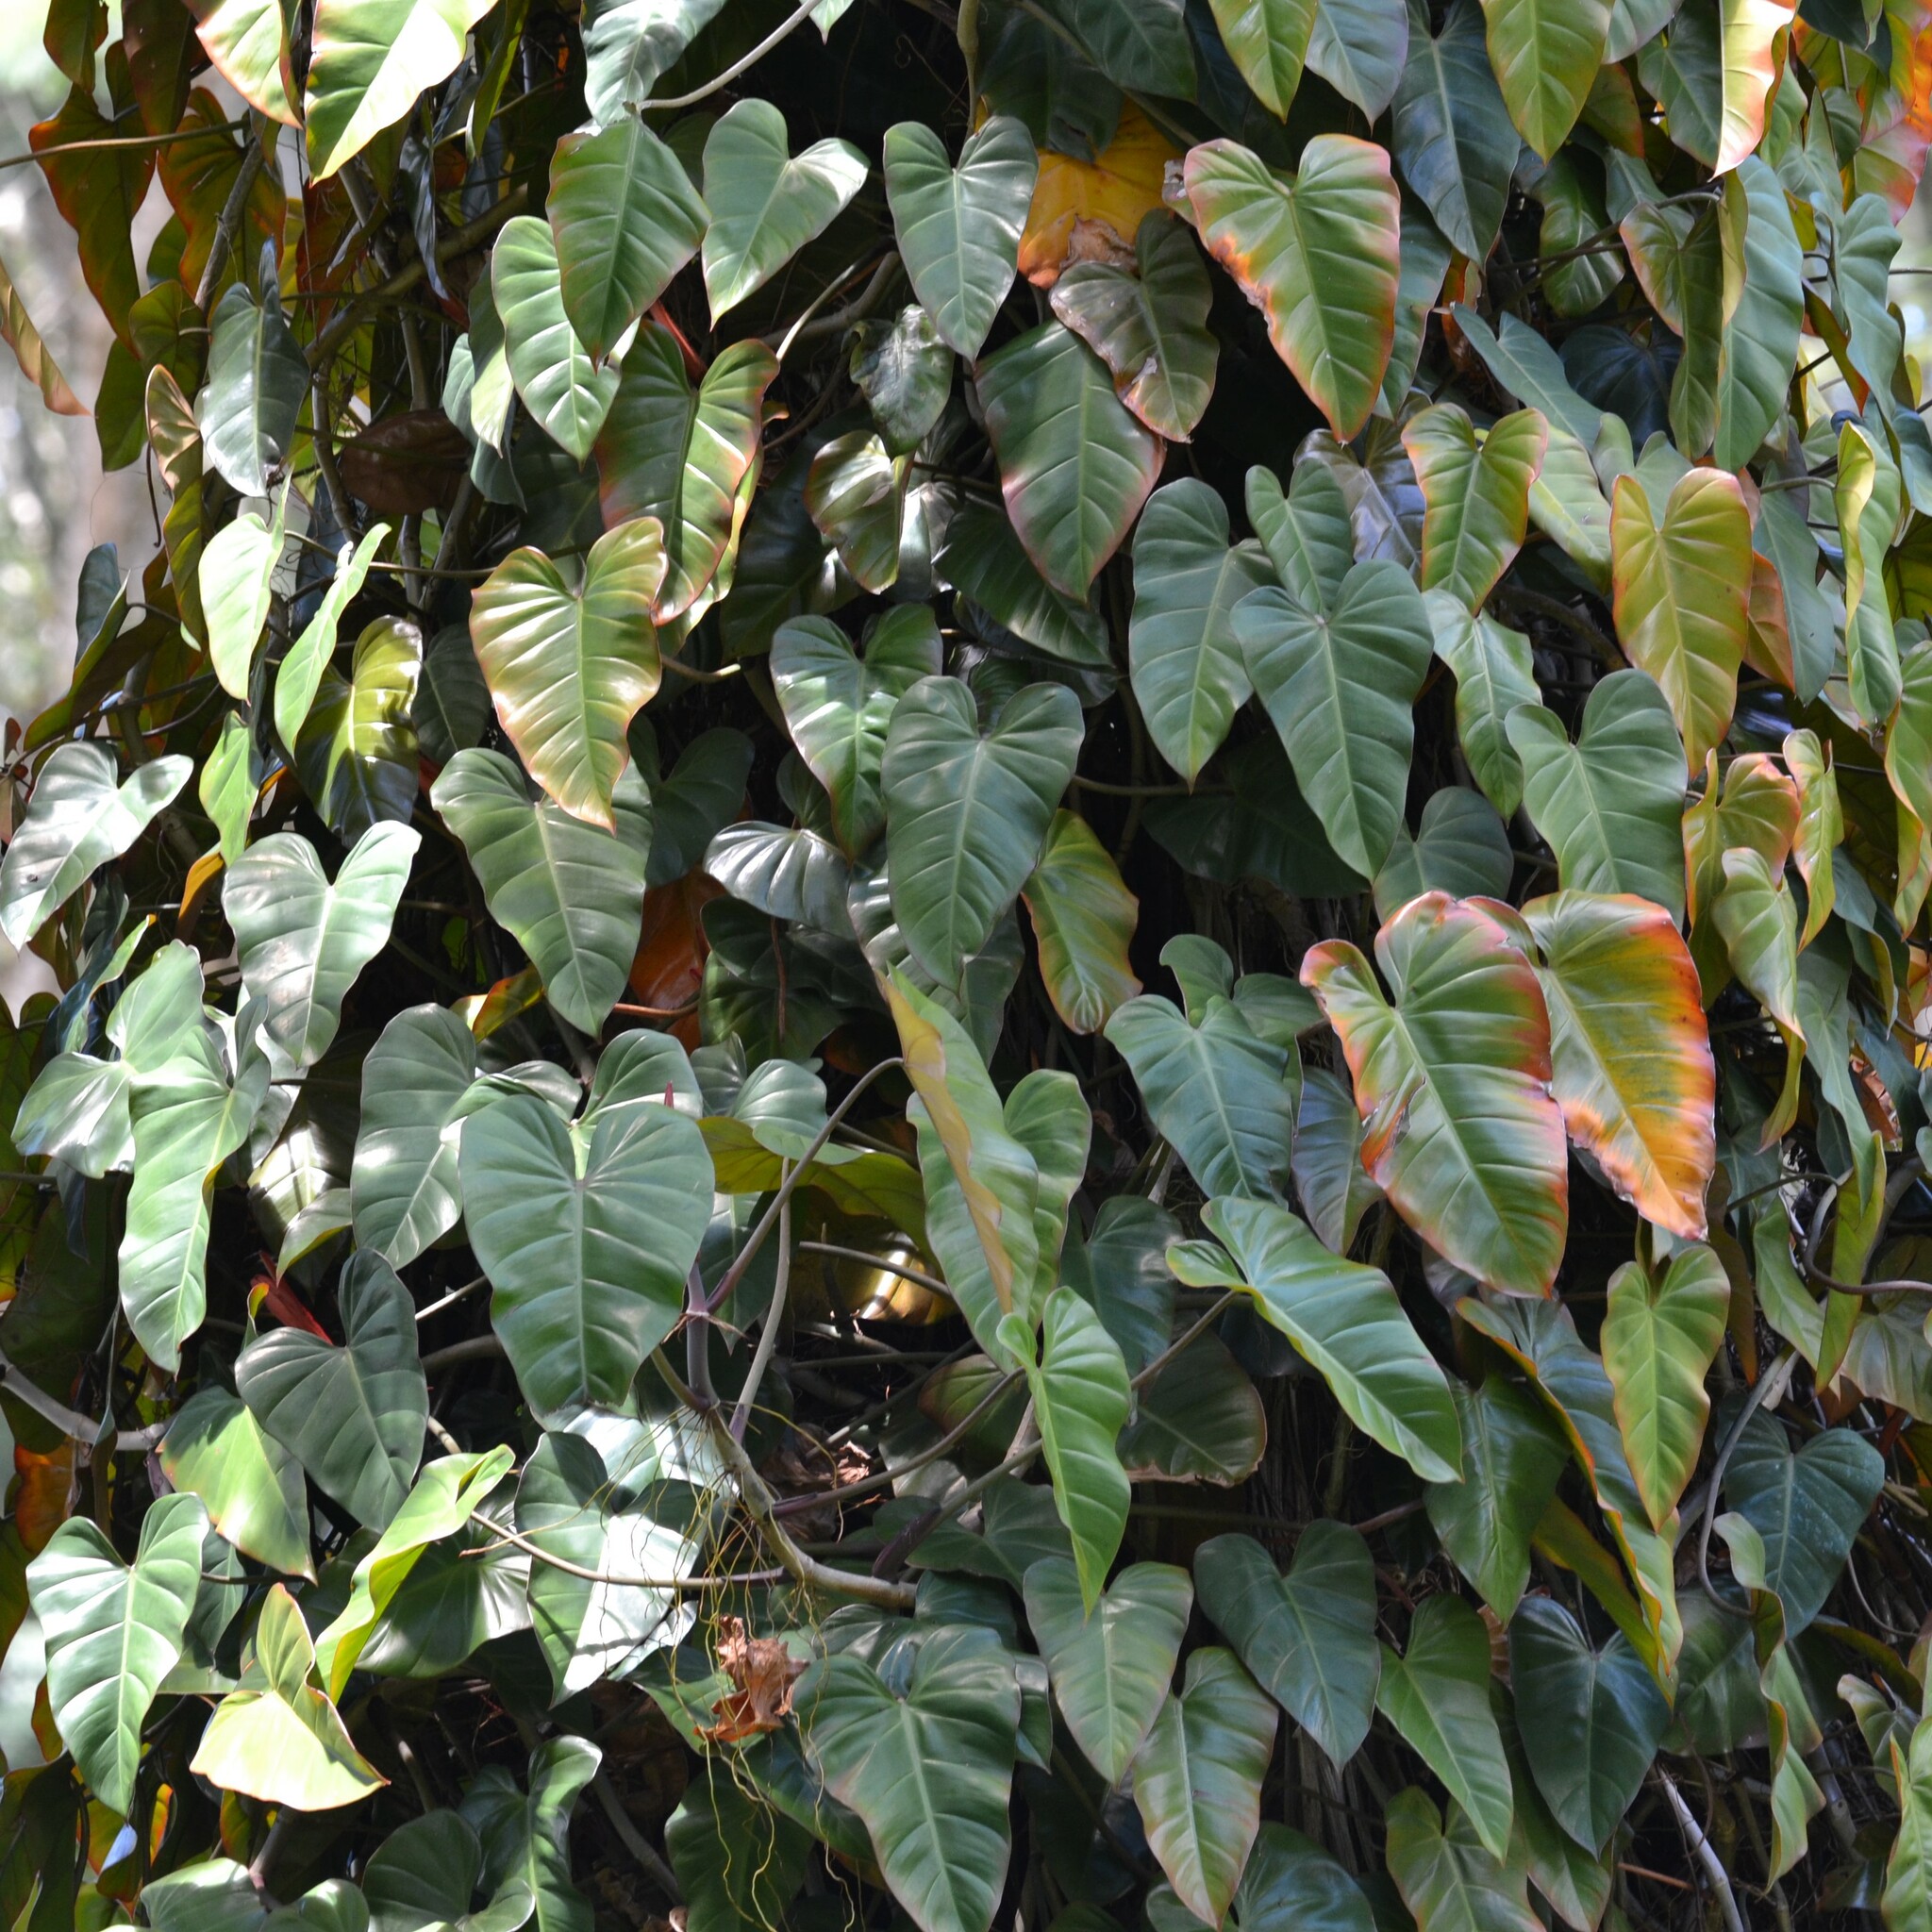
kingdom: Plantae
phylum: Tracheophyta
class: Liliopsida
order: Alismatales
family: Araceae
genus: Philodendron
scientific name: Philodendron erubescens
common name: Philodendron
